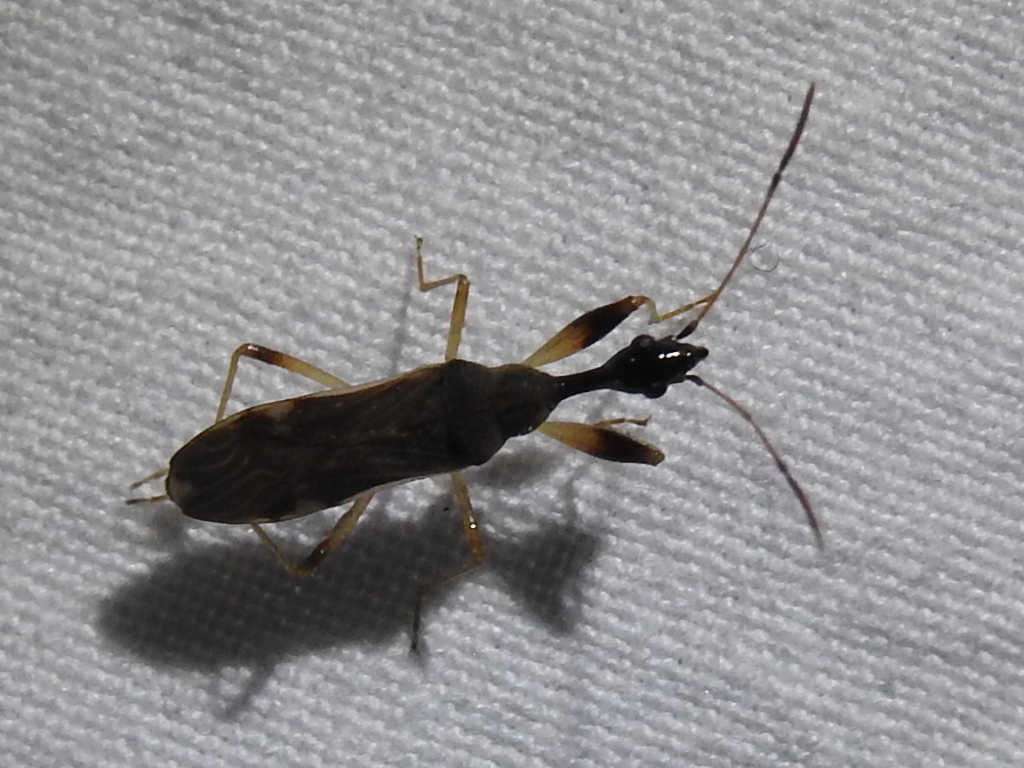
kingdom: Animalia
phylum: Arthropoda
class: Insecta
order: Hemiptera
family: Rhyparochromidae
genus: Myodocha
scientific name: Myodocha serripes
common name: Long-necked seed bug
